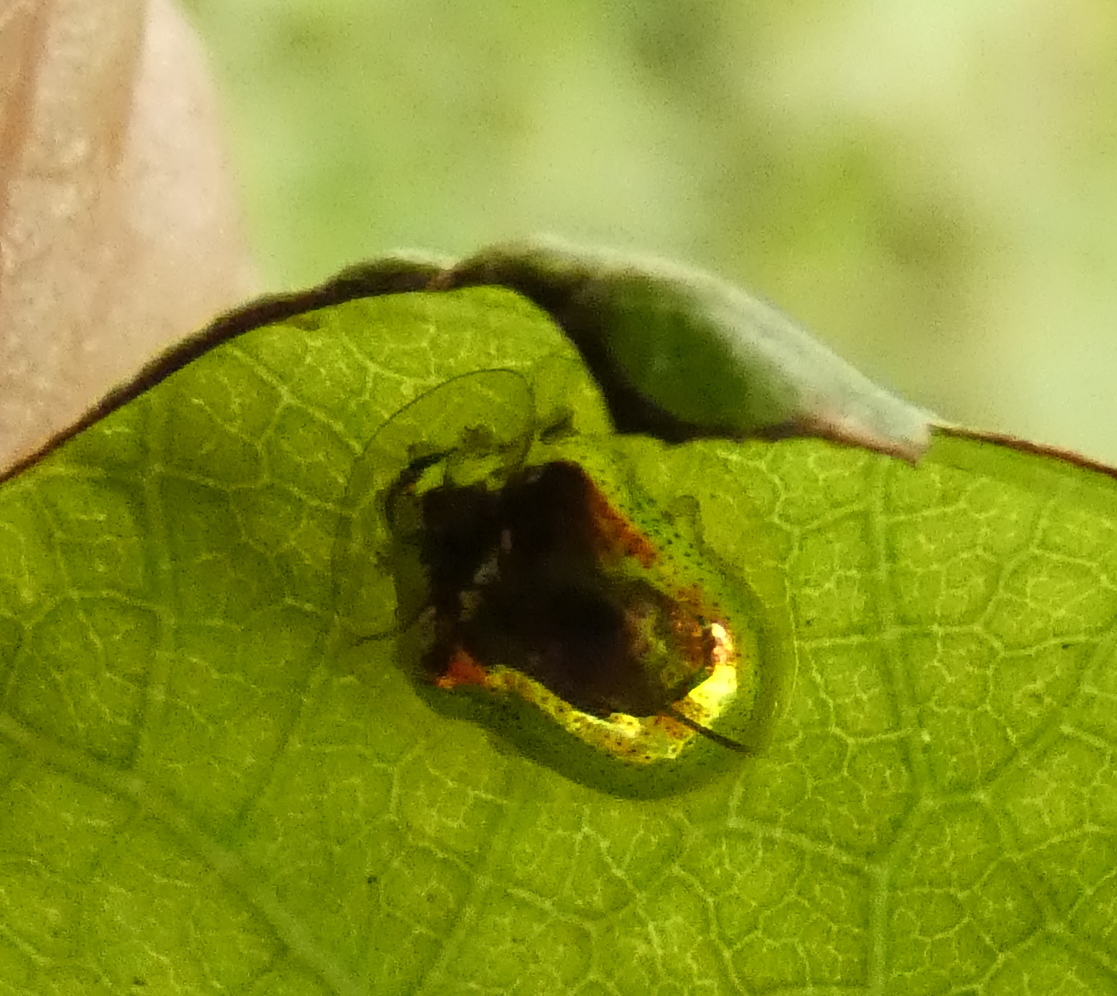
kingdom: Animalia
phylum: Arthropoda
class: Insecta
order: Coleoptera
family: Chrysomelidae
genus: Charidotella
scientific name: Charidotella zona
